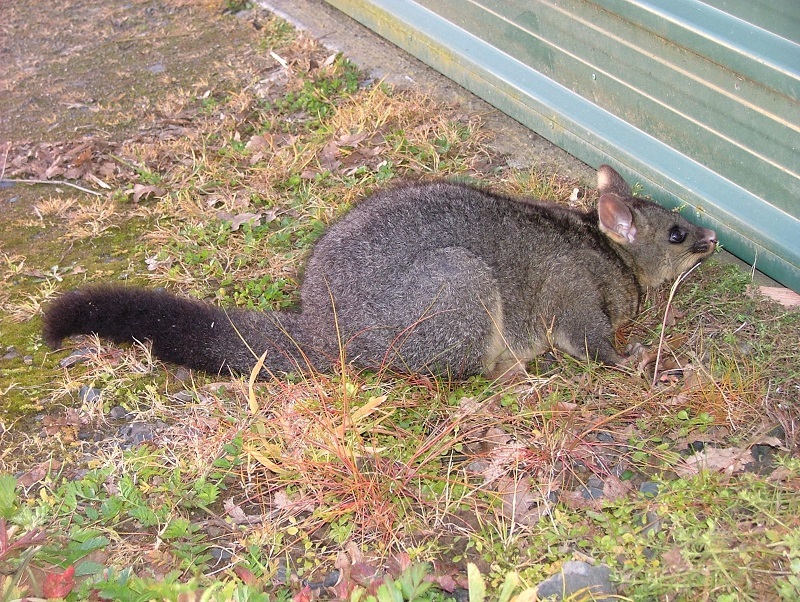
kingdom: Animalia
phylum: Chordata
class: Mammalia
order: Diprotodontia
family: Phalangeridae
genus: Trichosurus
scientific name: Trichosurus vulpecula
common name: Common brushtail
